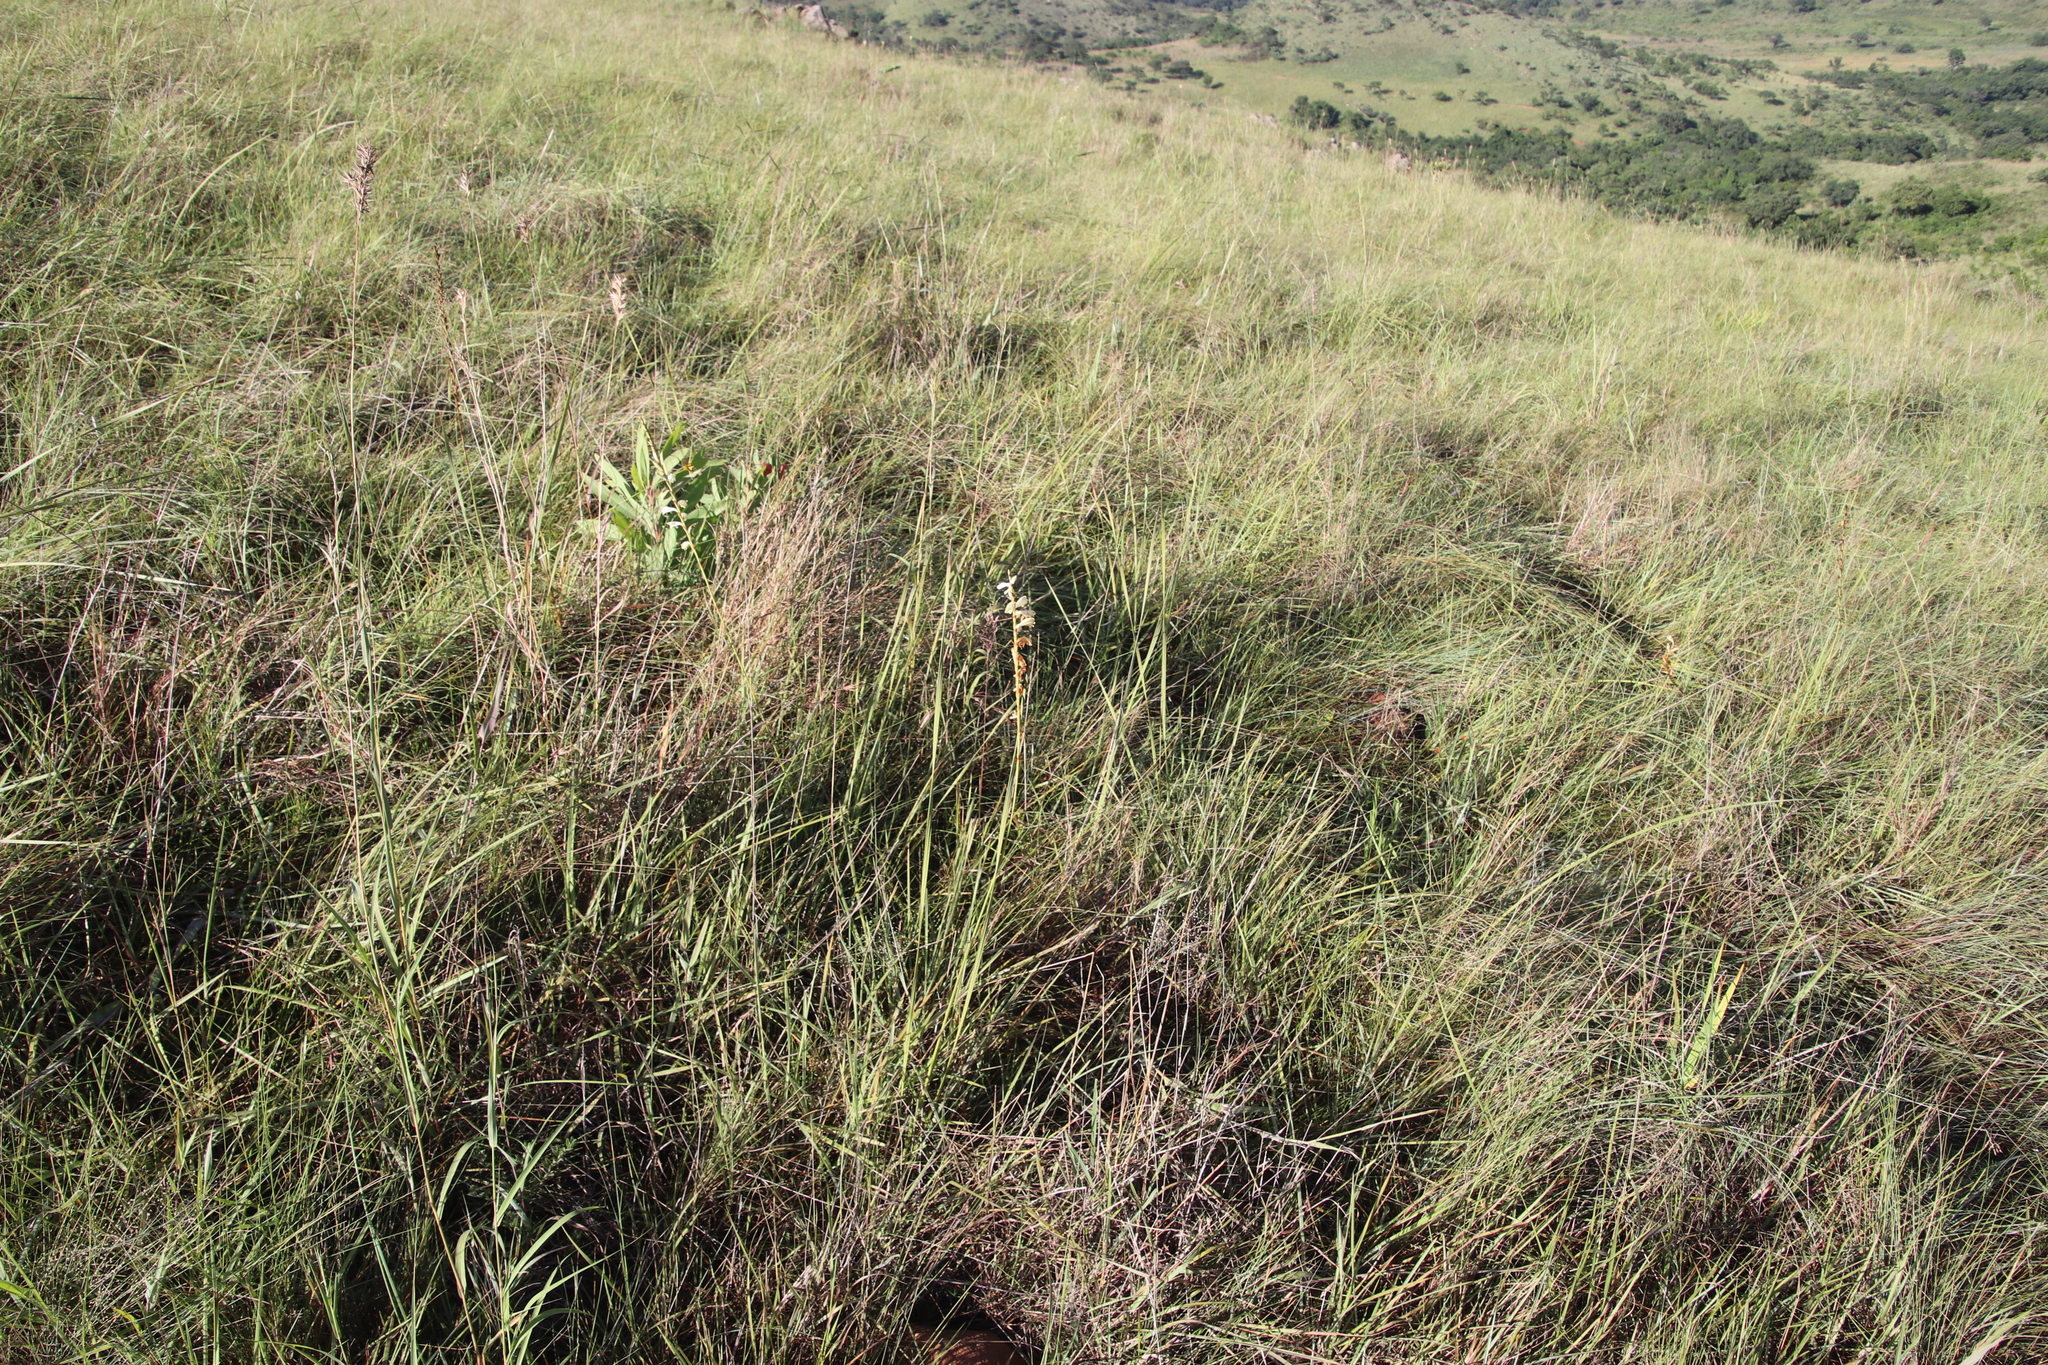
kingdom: Plantae
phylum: Tracheophyta
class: Liliopsida
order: Asparagales
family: Iridaceae
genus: Watsonia
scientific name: Watsonia watsonioides
